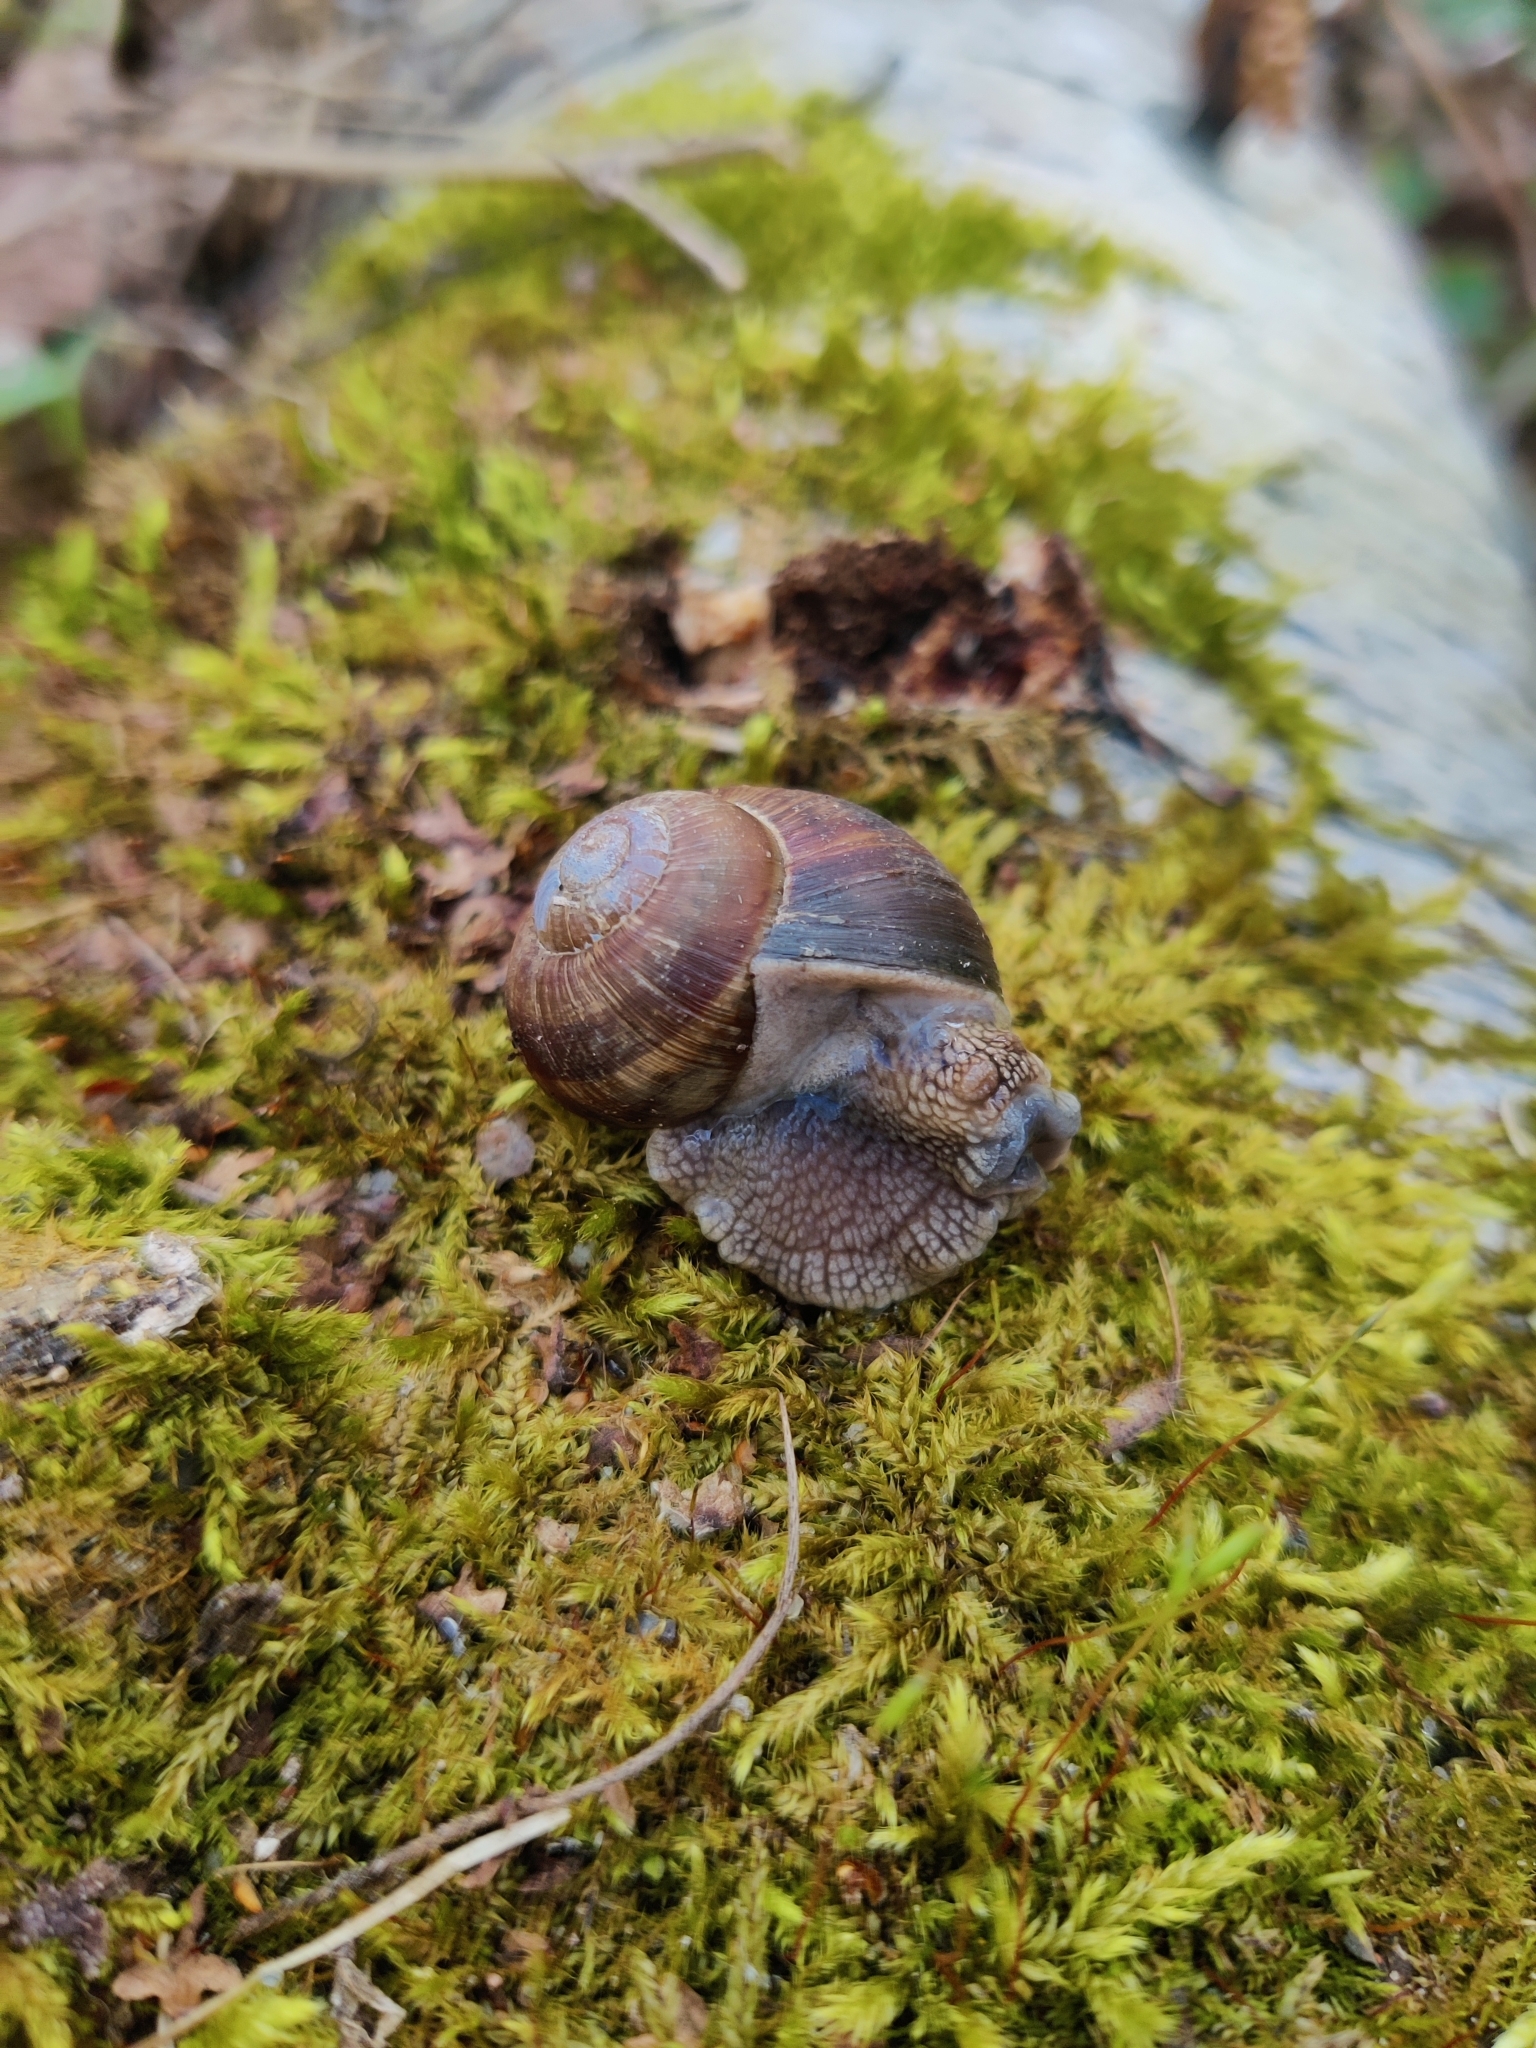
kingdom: Animalia
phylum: Mollusca
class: Gastropoda
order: Stylommatophora
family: Helicidae
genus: Helix
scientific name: Helix pomatia
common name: Roman snail
